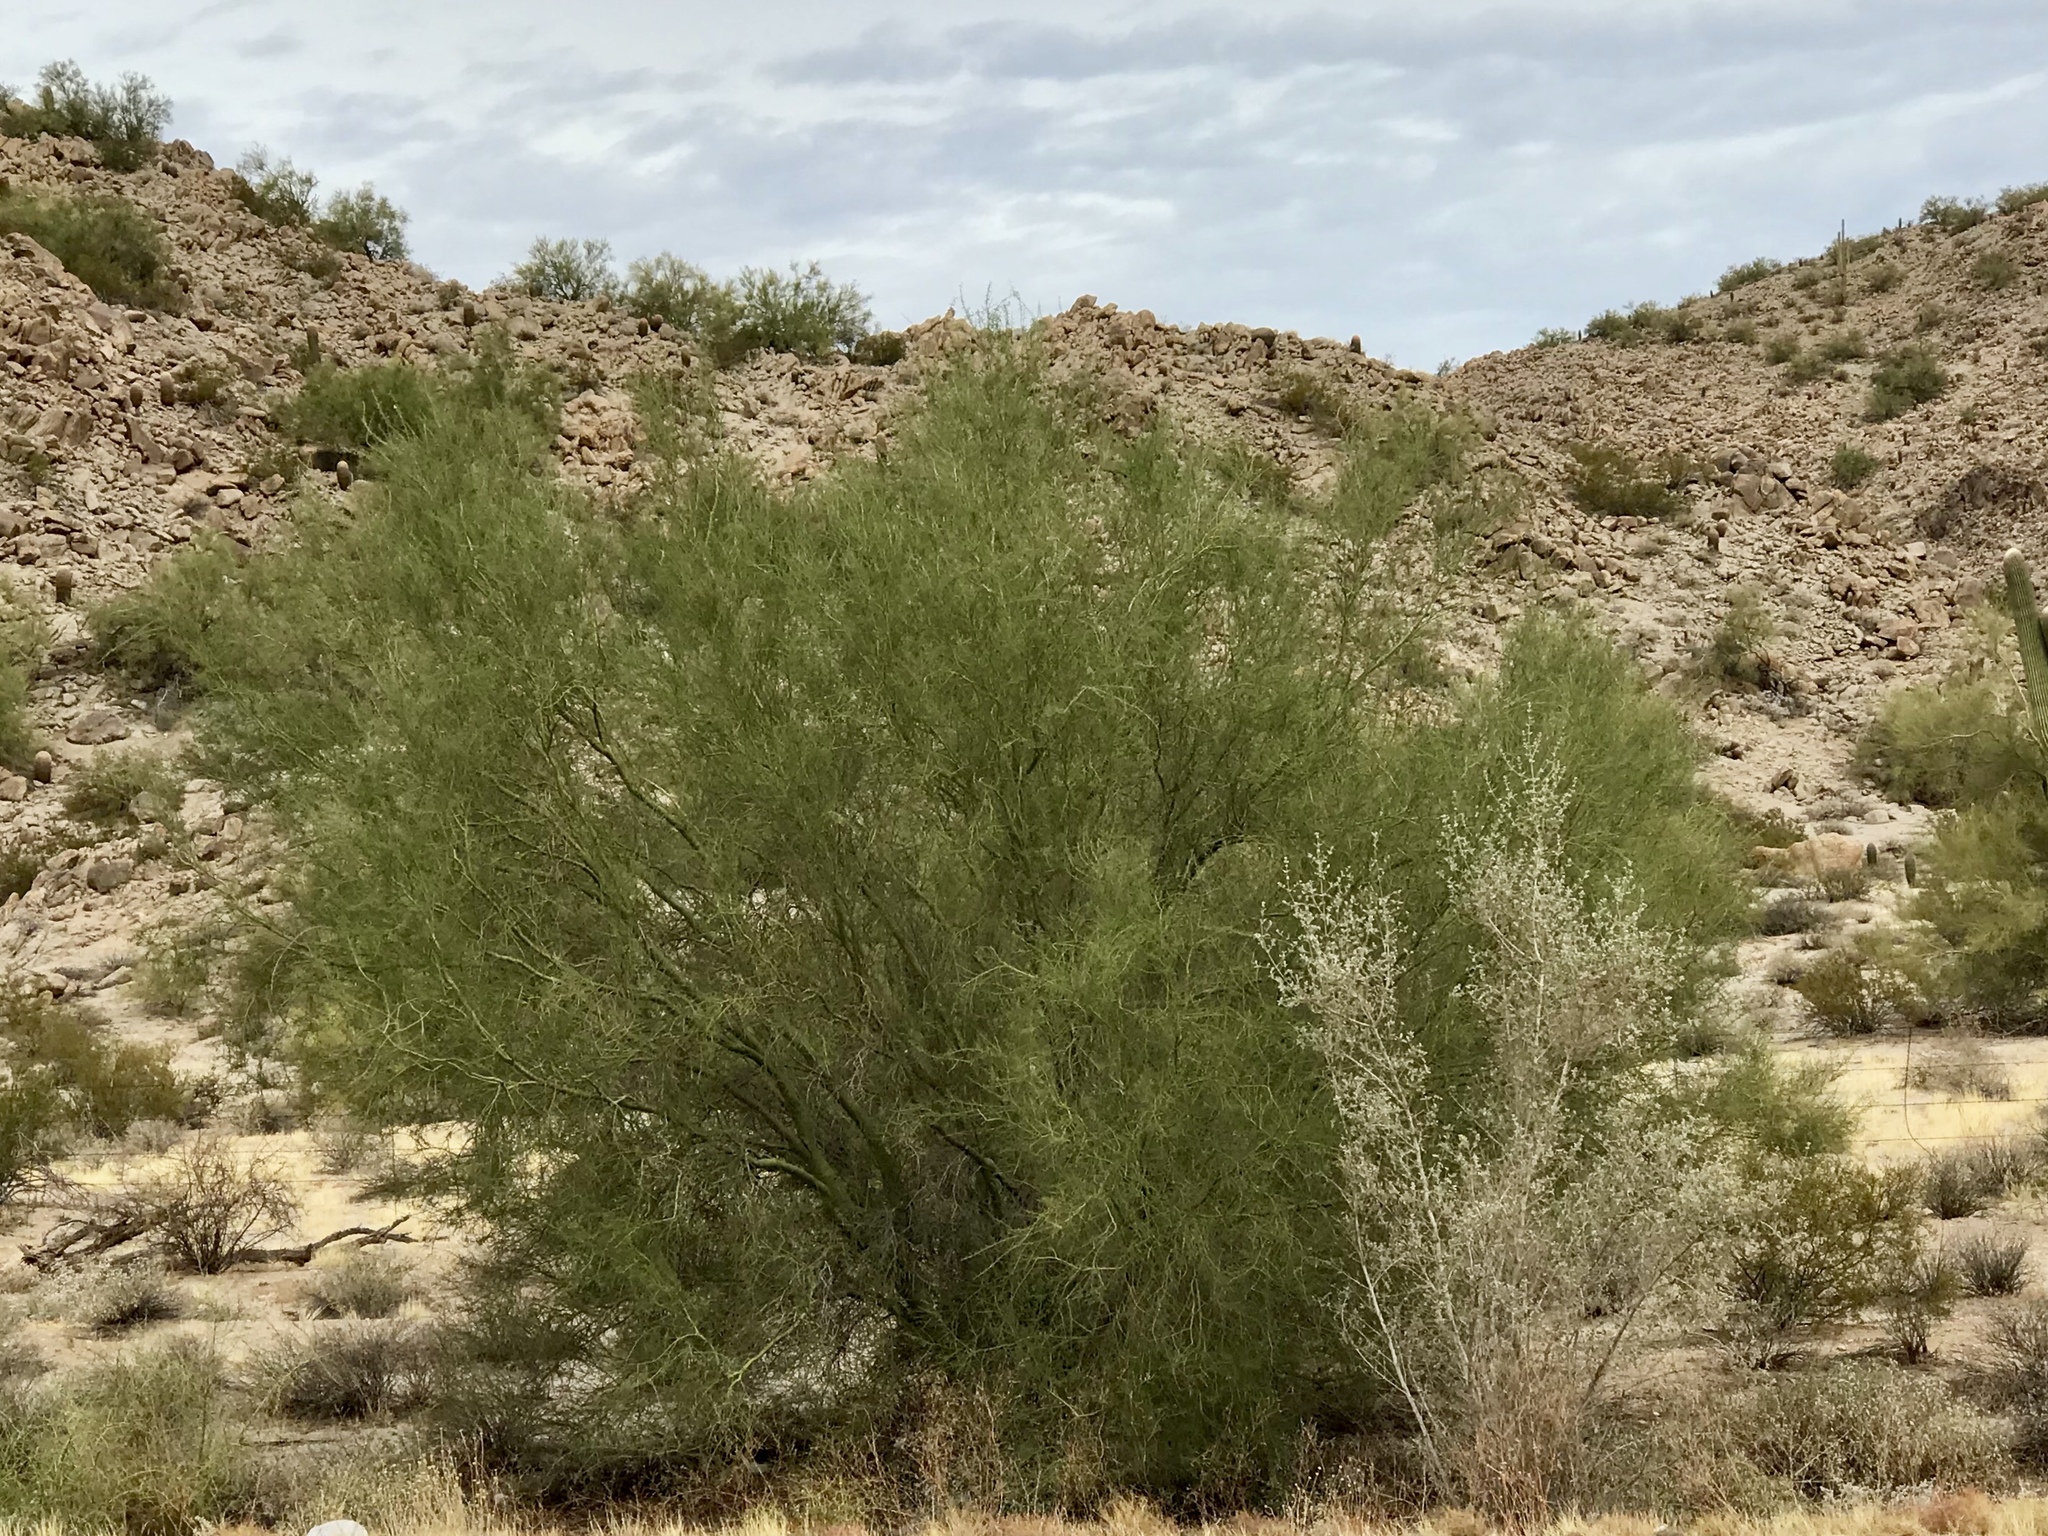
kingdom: Plantae
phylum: Tracheophyta
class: Magnoliopsida
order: Fabales
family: Fabaceae
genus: Parkinsonia
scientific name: Parkinsonia florida
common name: Blue paloverde
